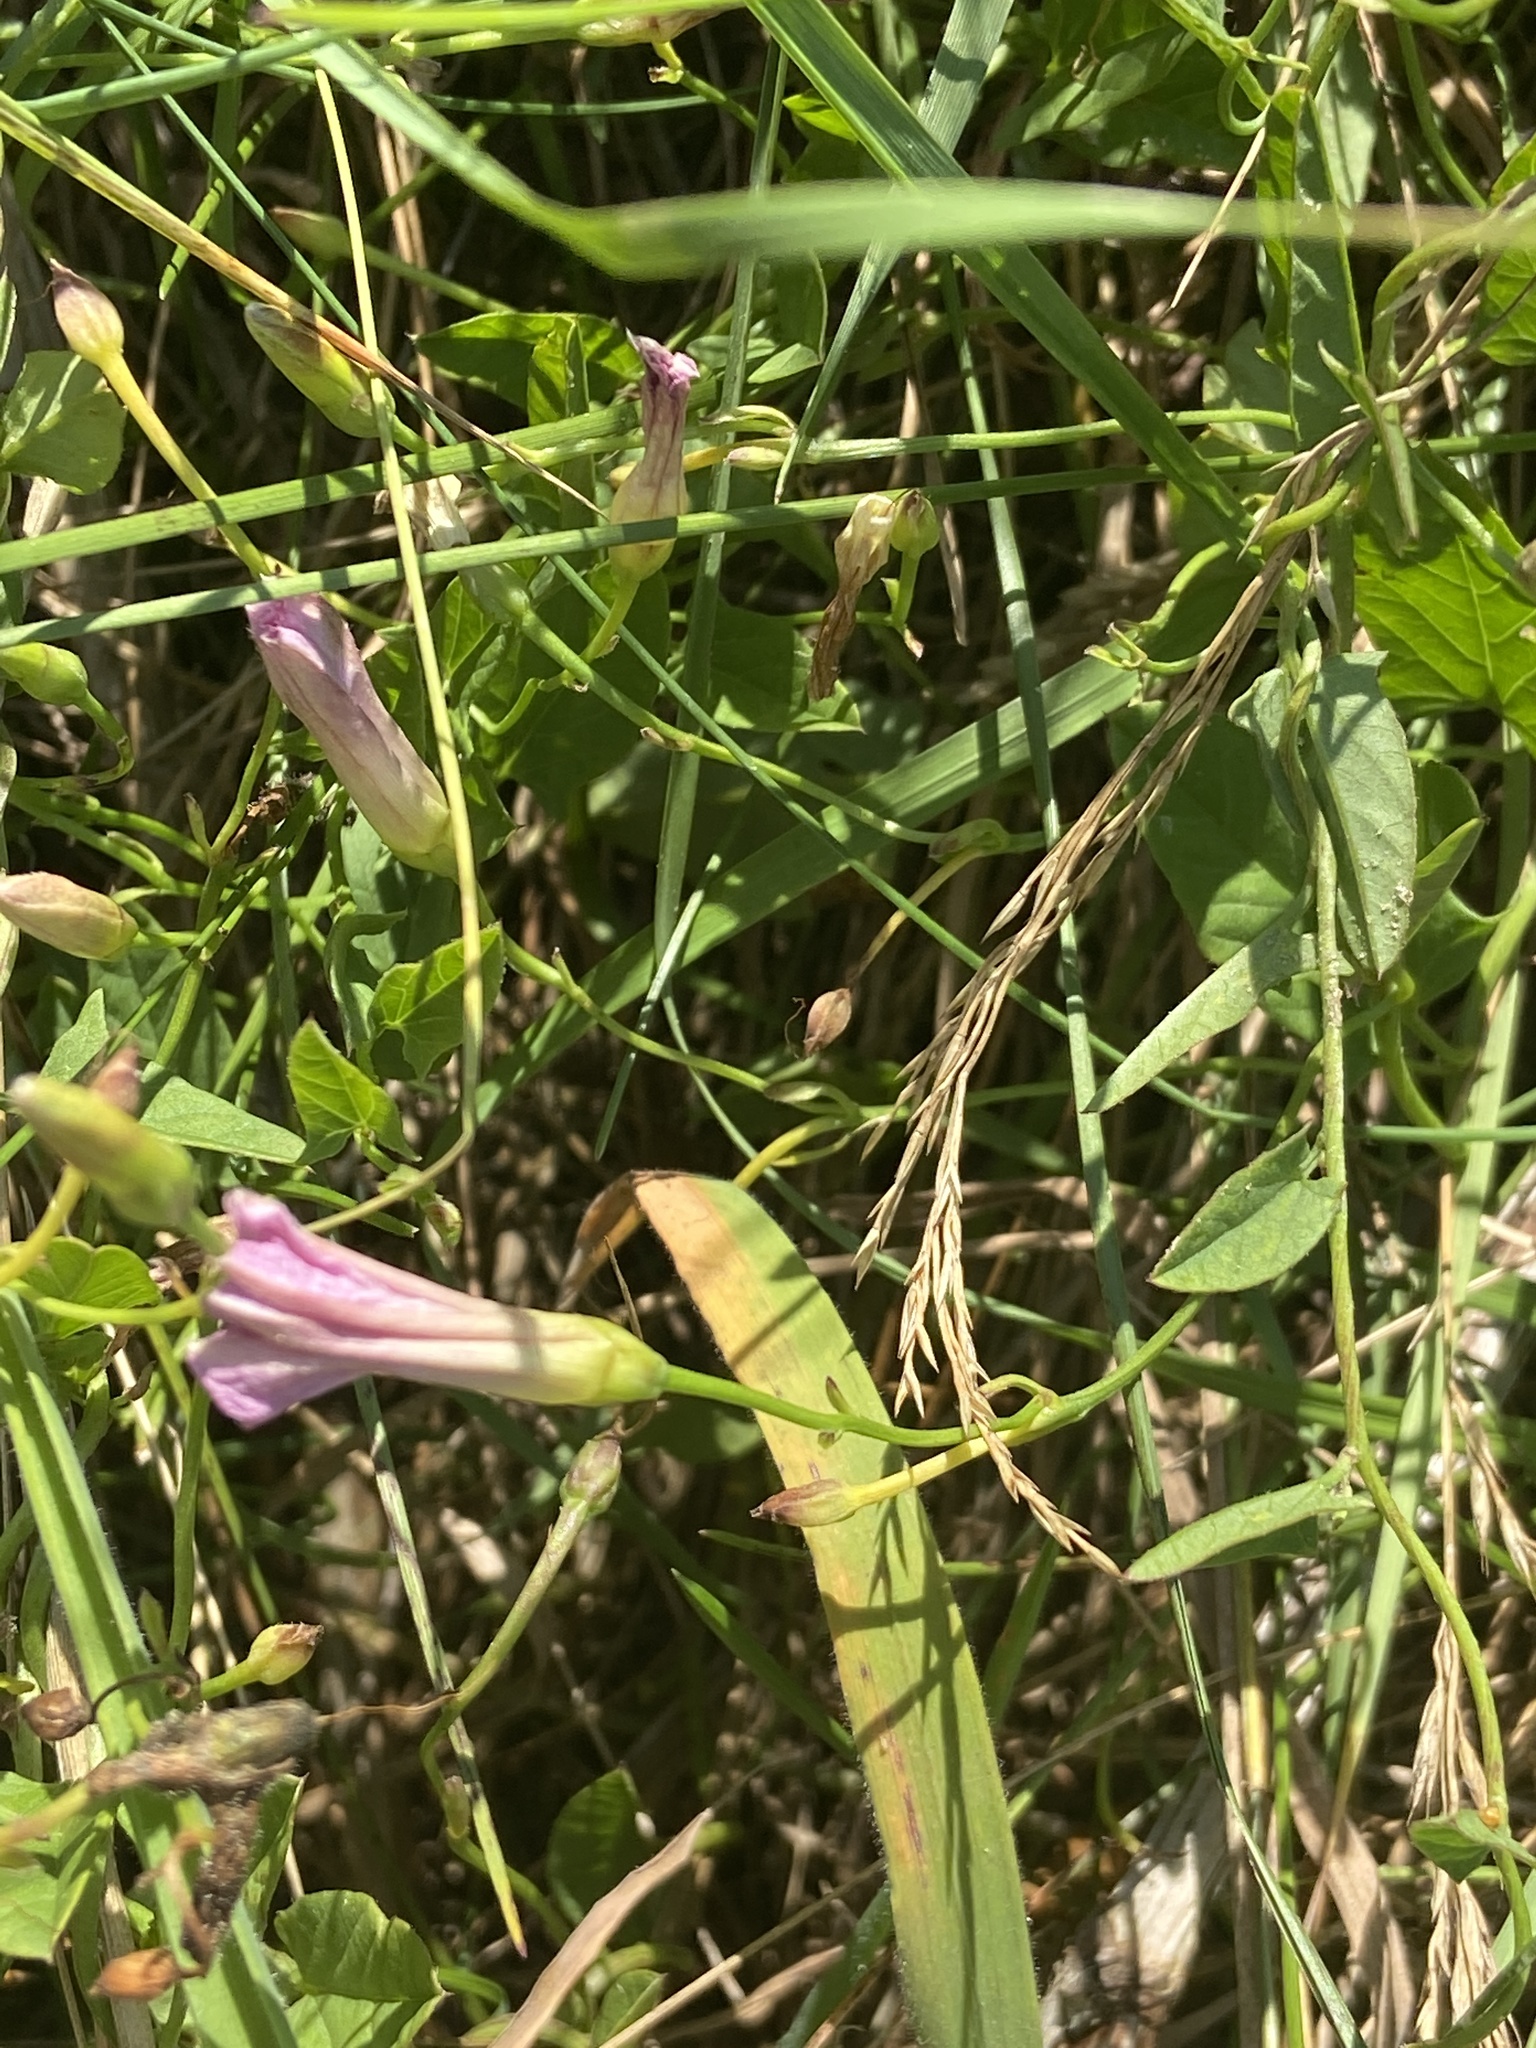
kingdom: Plantae
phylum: Tracheophyta
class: Magnoliopsida
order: Solanales
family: Convolvulaceae
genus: Convolvulus
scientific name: Convolvulus arvensis
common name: Field bindweed
